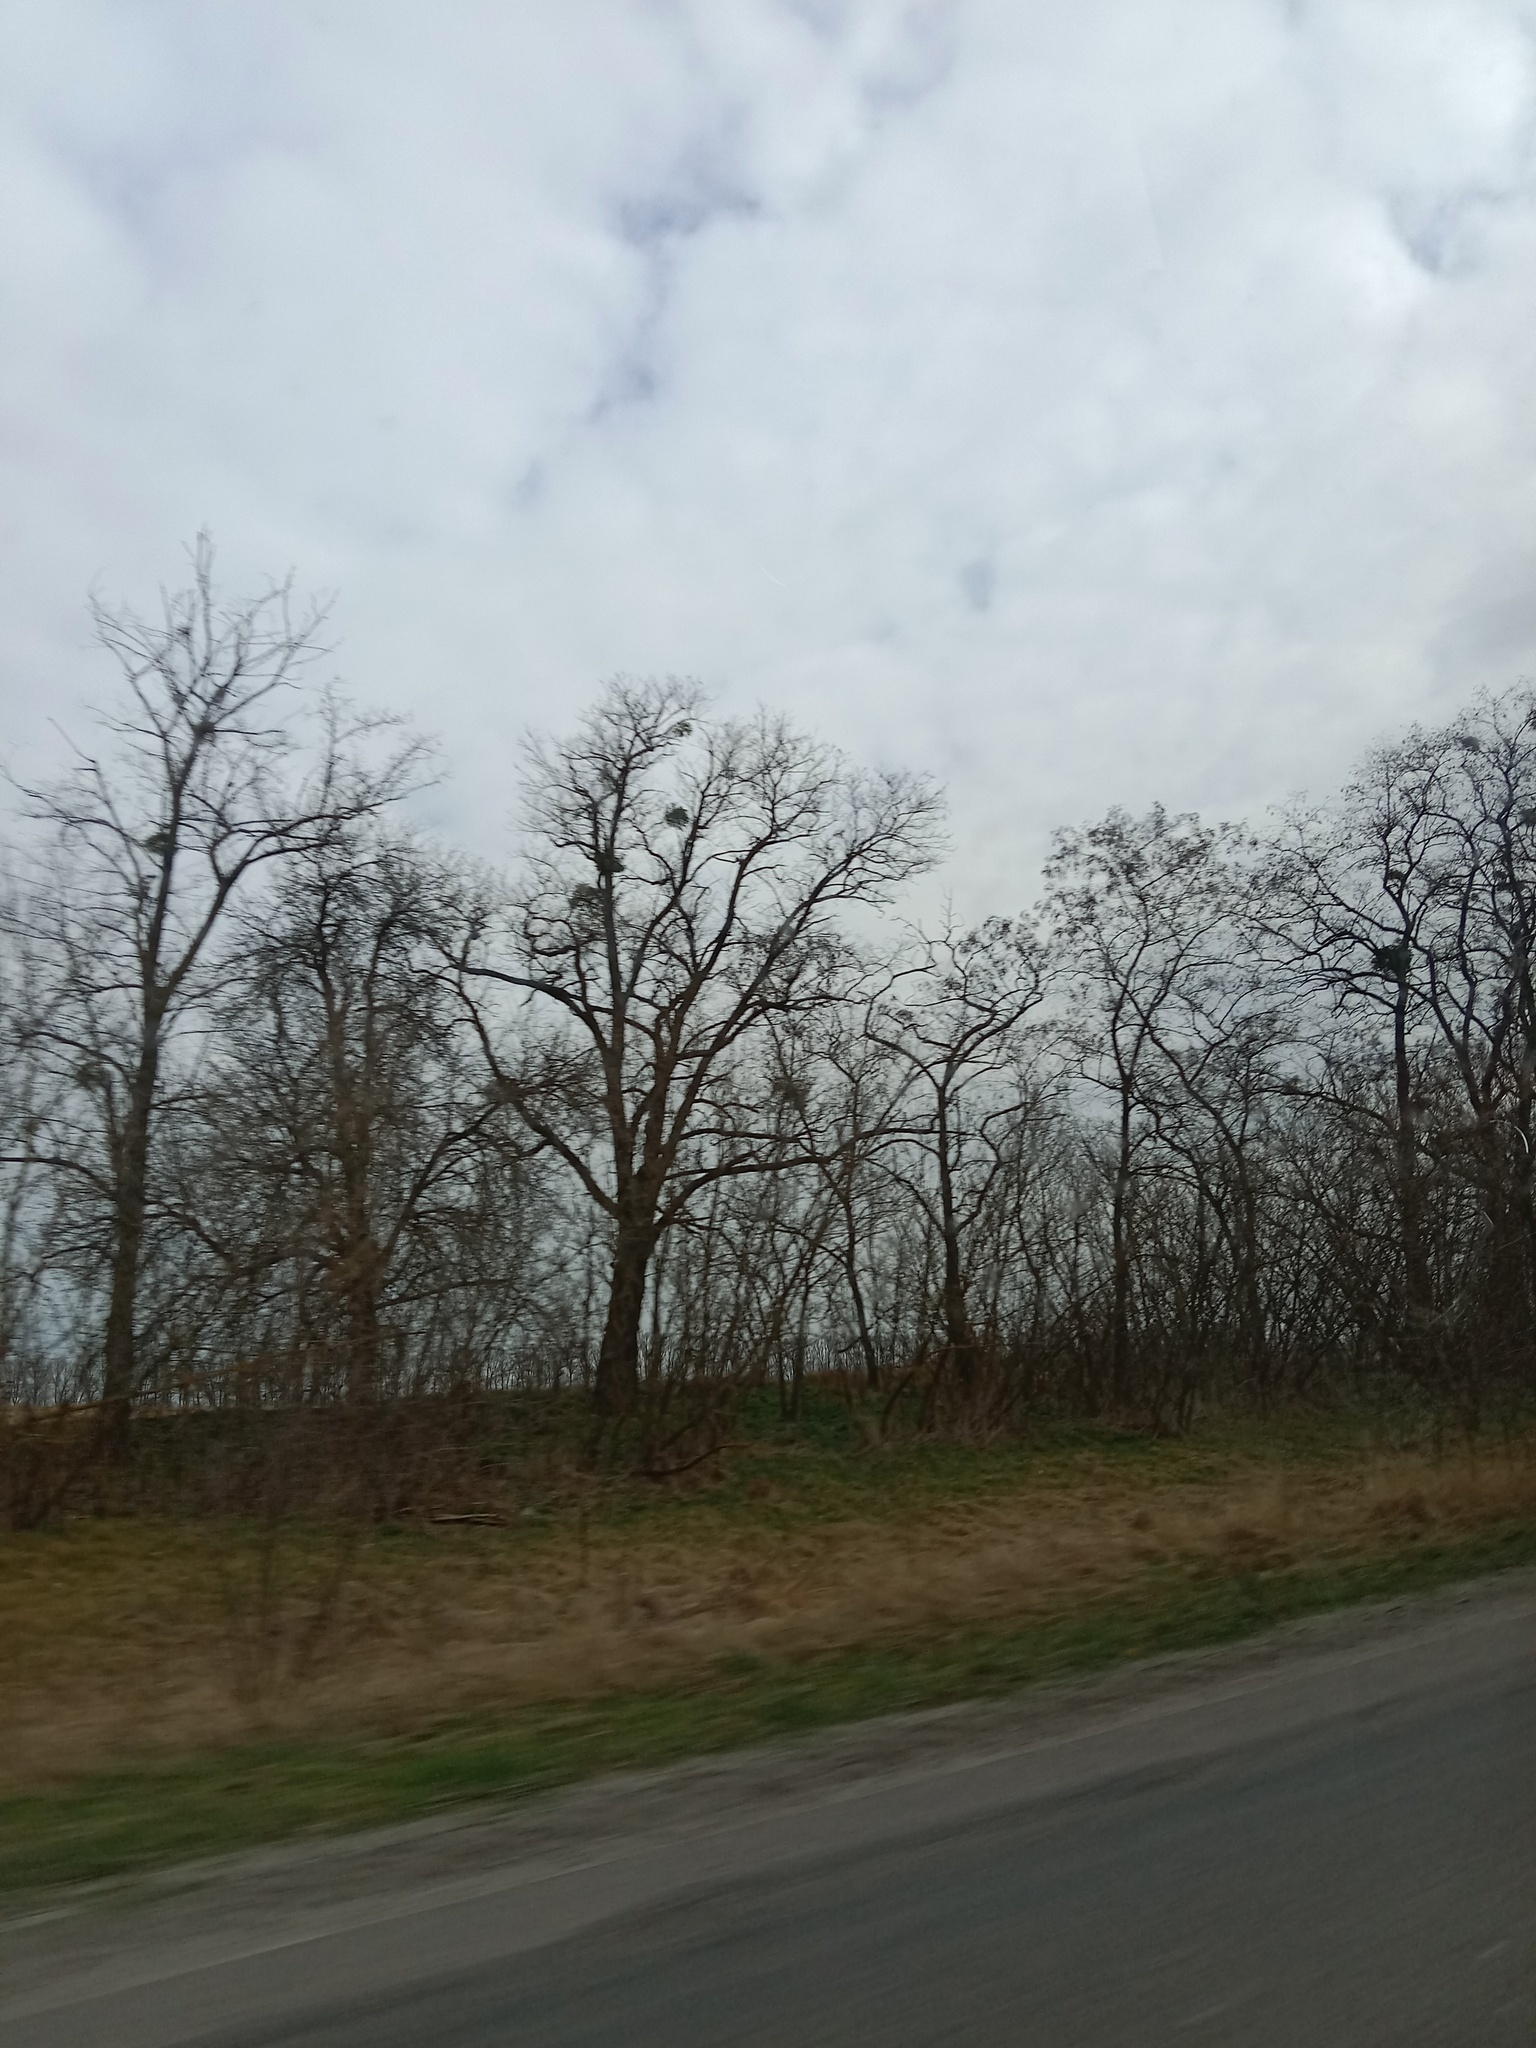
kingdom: Plantae
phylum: Tracheophyta
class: Magnoliopsida
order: Santalales
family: Viscaceae
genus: Viscum
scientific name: Viscum album
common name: Mistletoe
